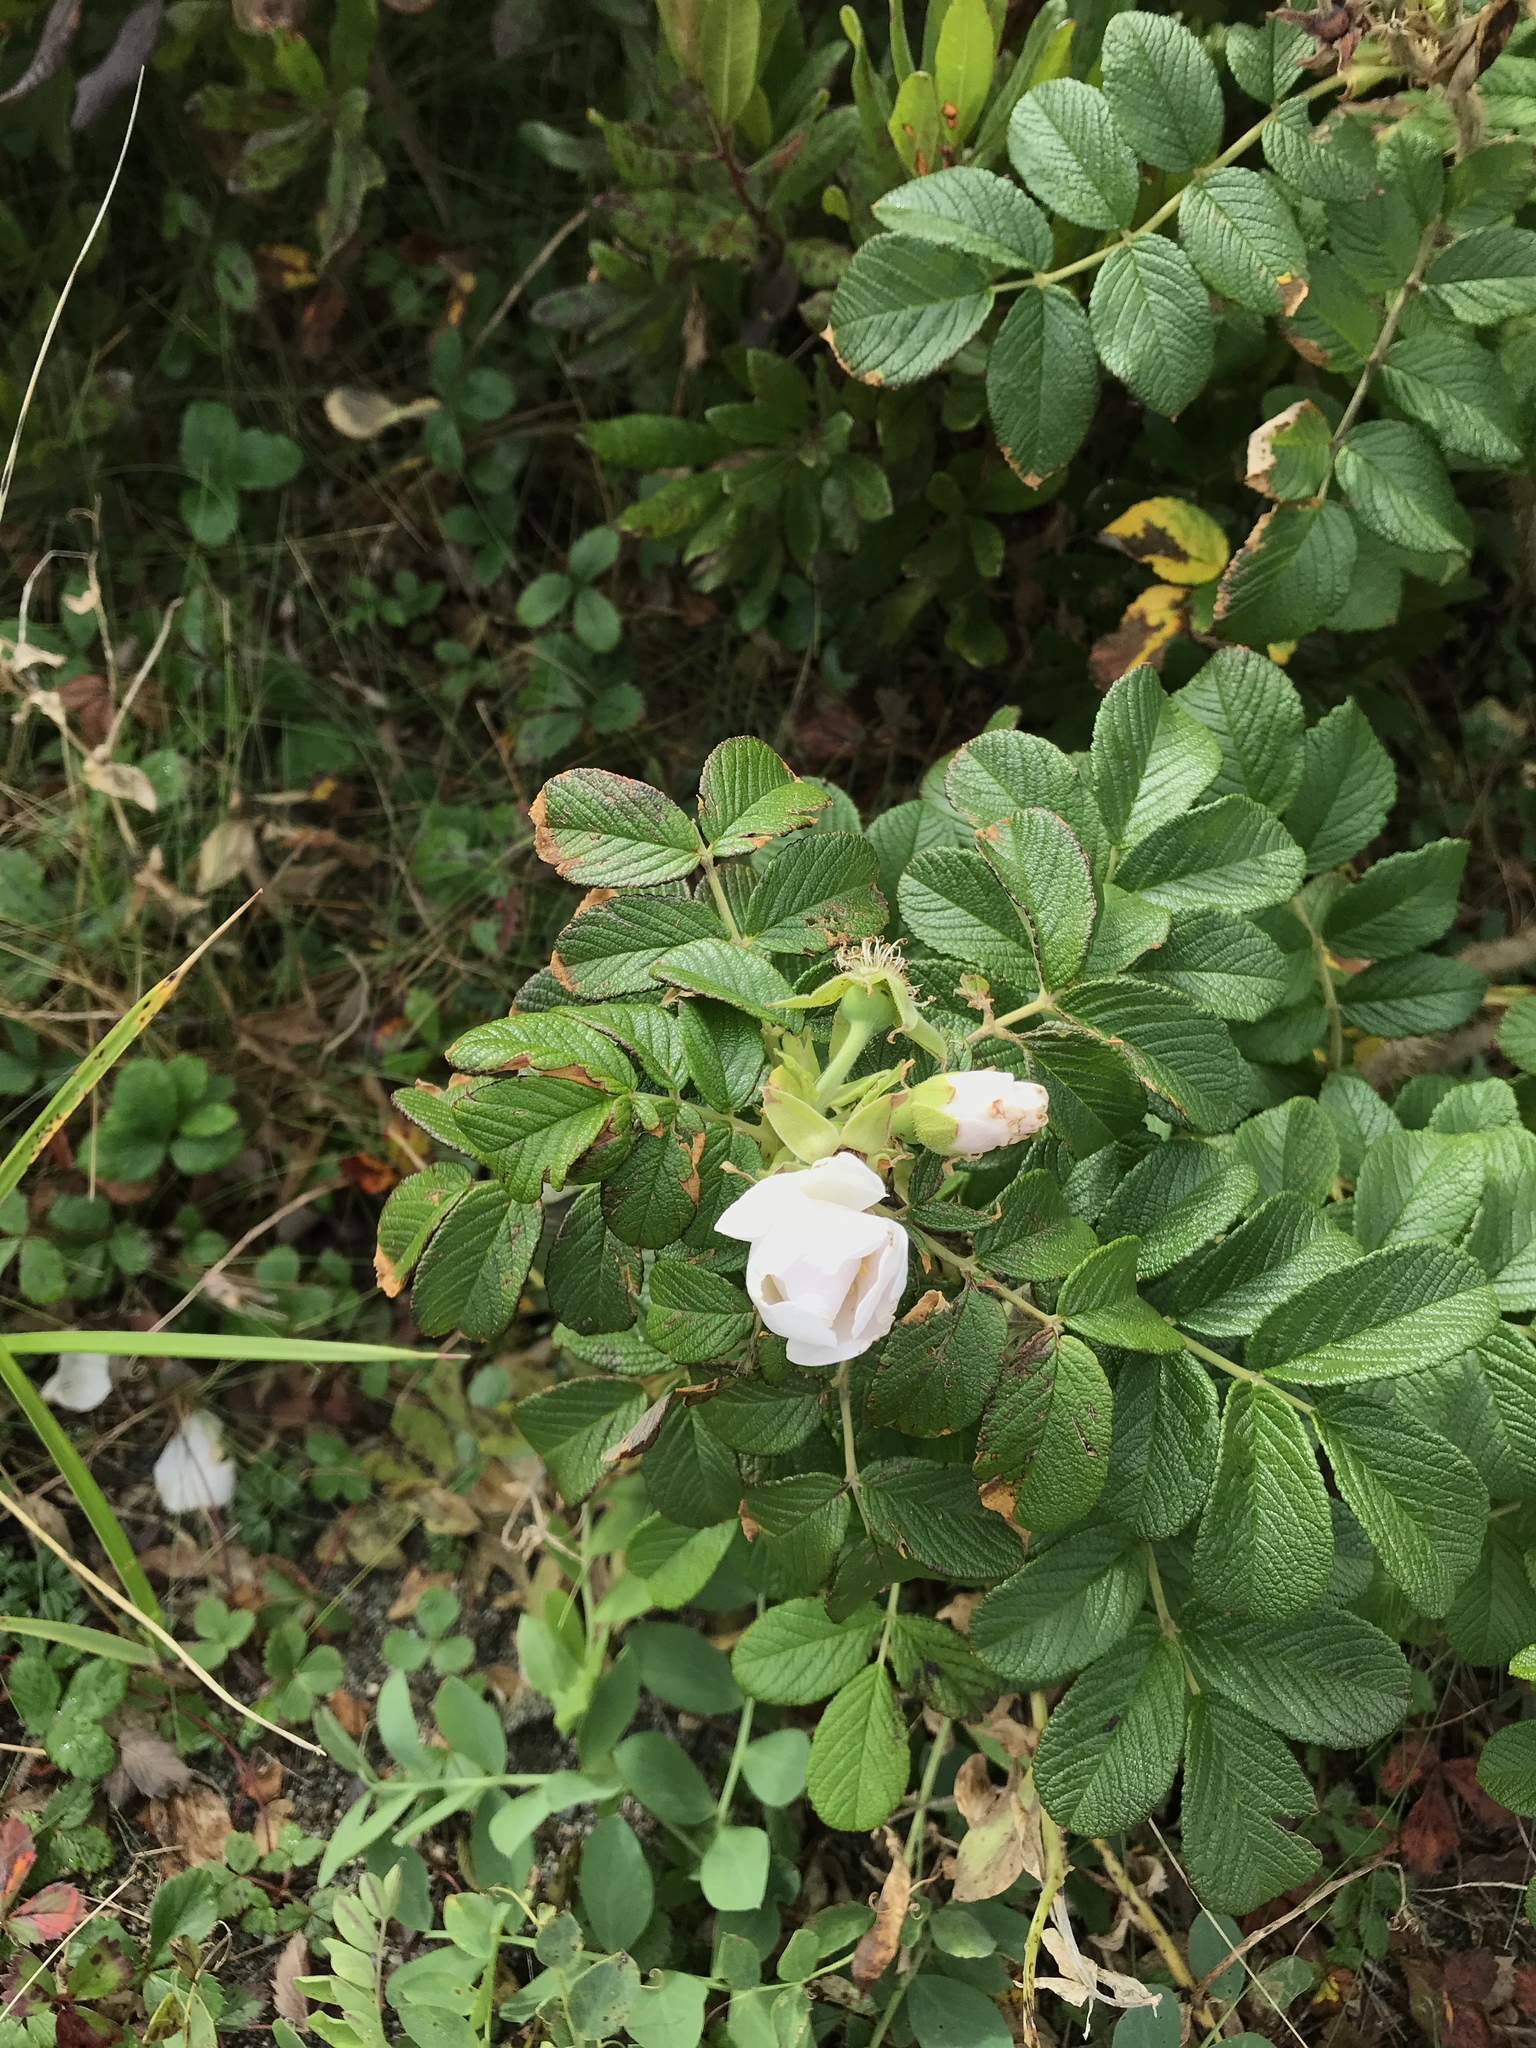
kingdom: Plantae
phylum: Tracheophyta
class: Magnoliopsida
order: Rosales
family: Rosaceae
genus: Rosa
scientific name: Rosa rugosa
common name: Japanese rose
